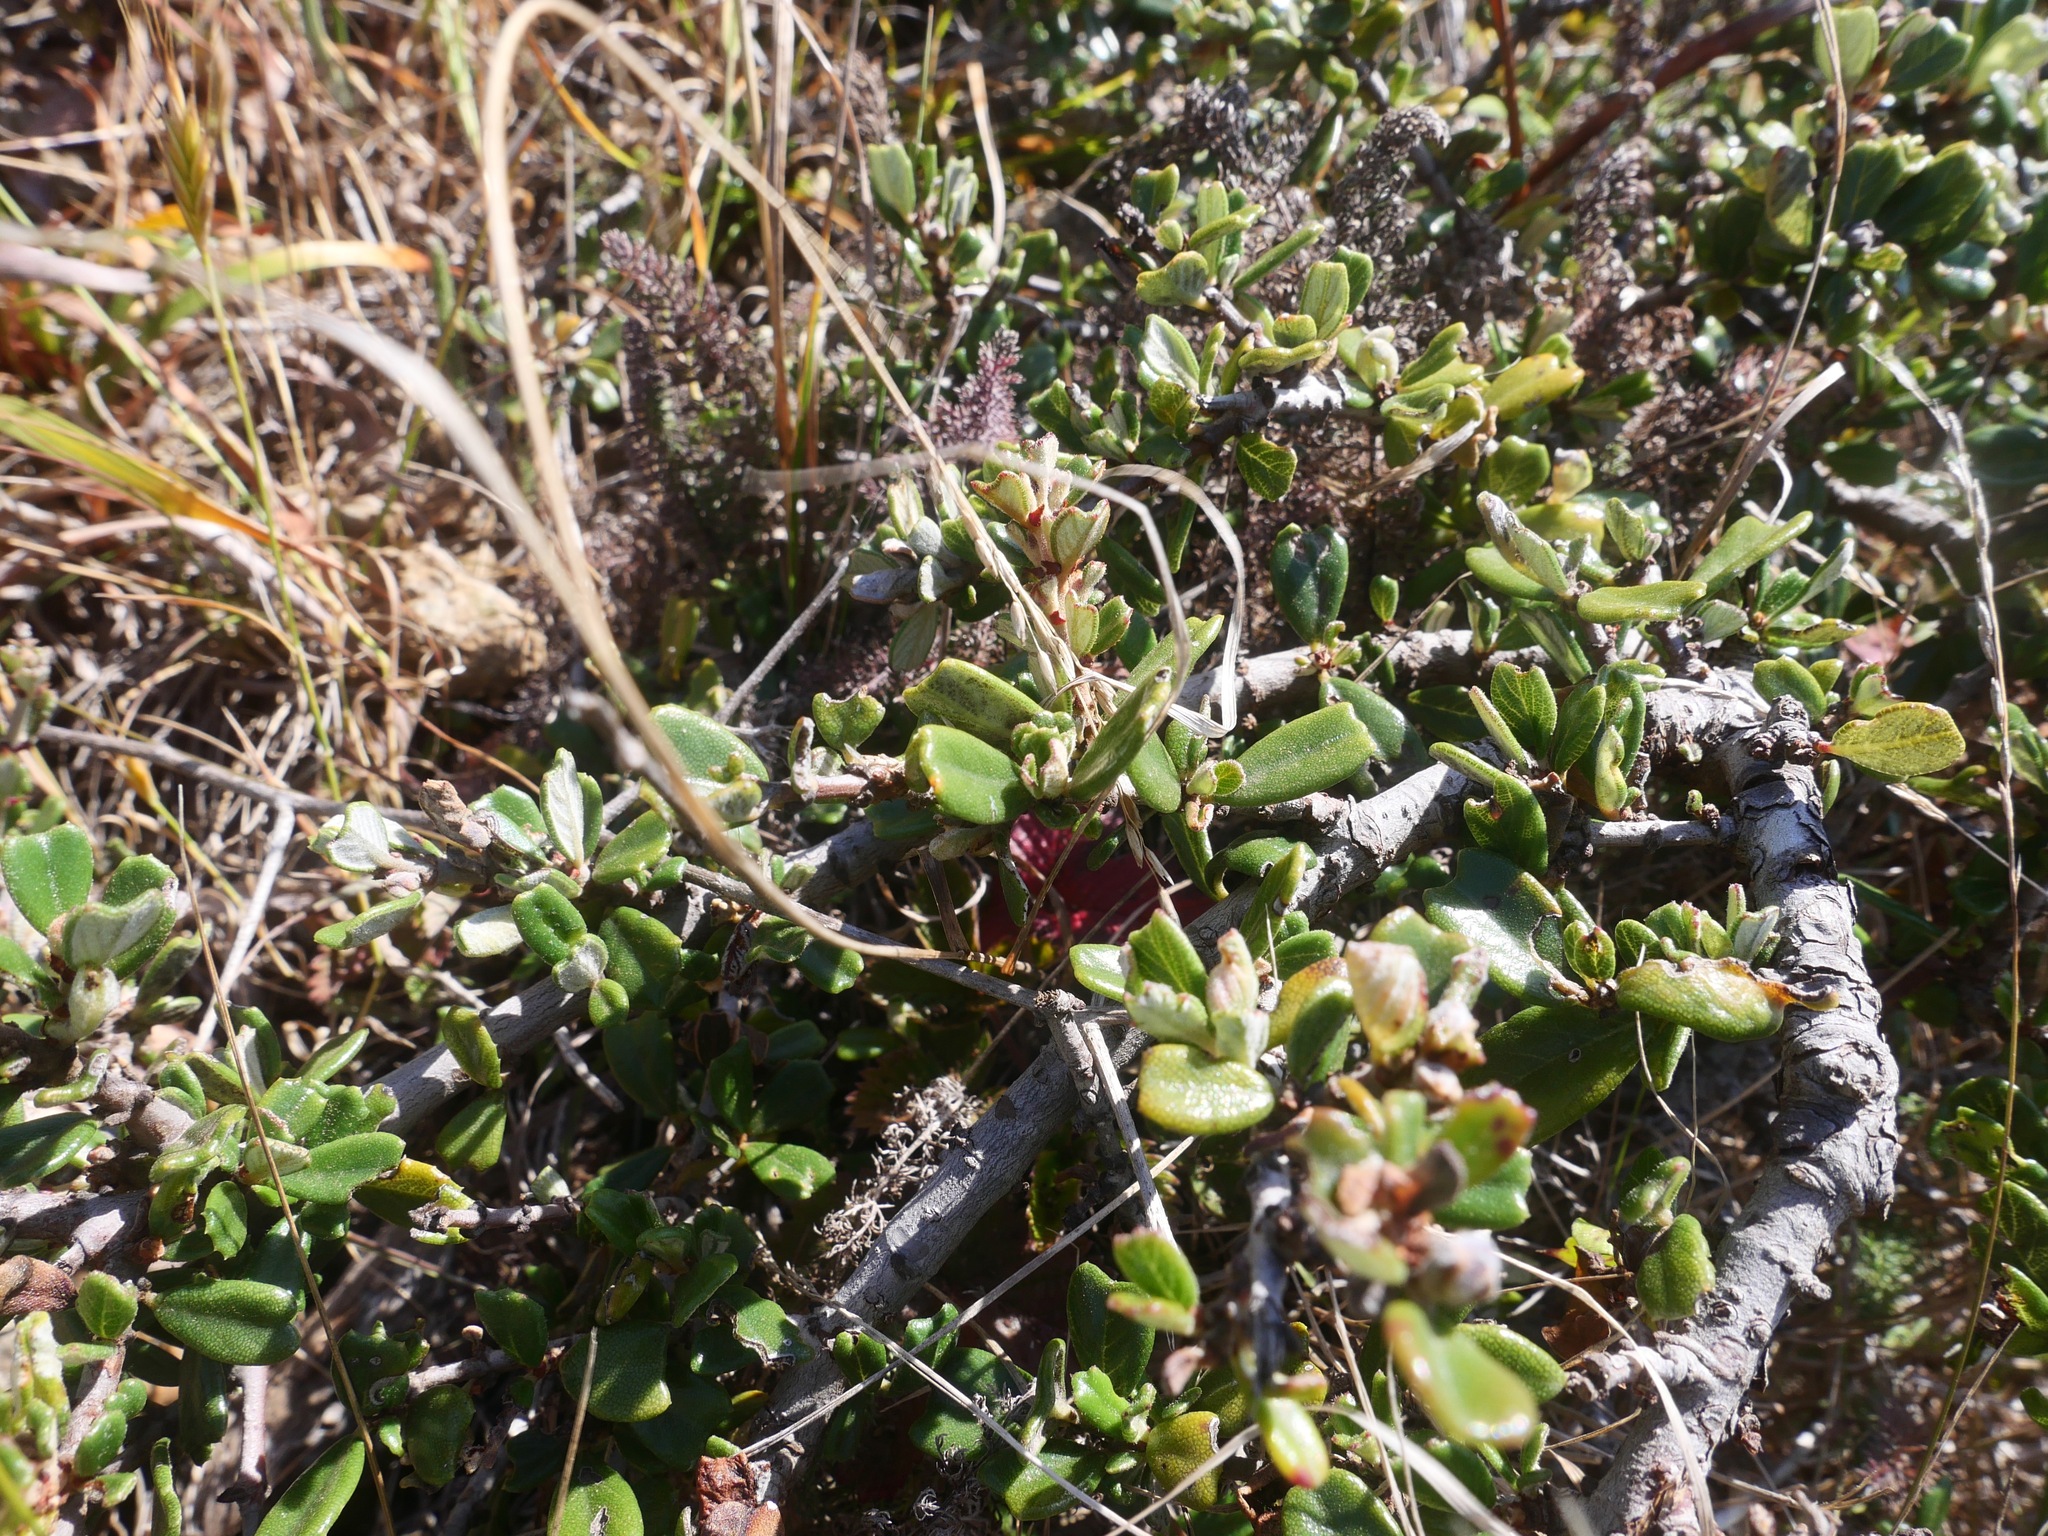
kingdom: Plantae
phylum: Tracheophyta
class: Magnoliopsida
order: Rosales
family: Rhamnaceae
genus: Ceanothus
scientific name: Ceanothus maritimus
